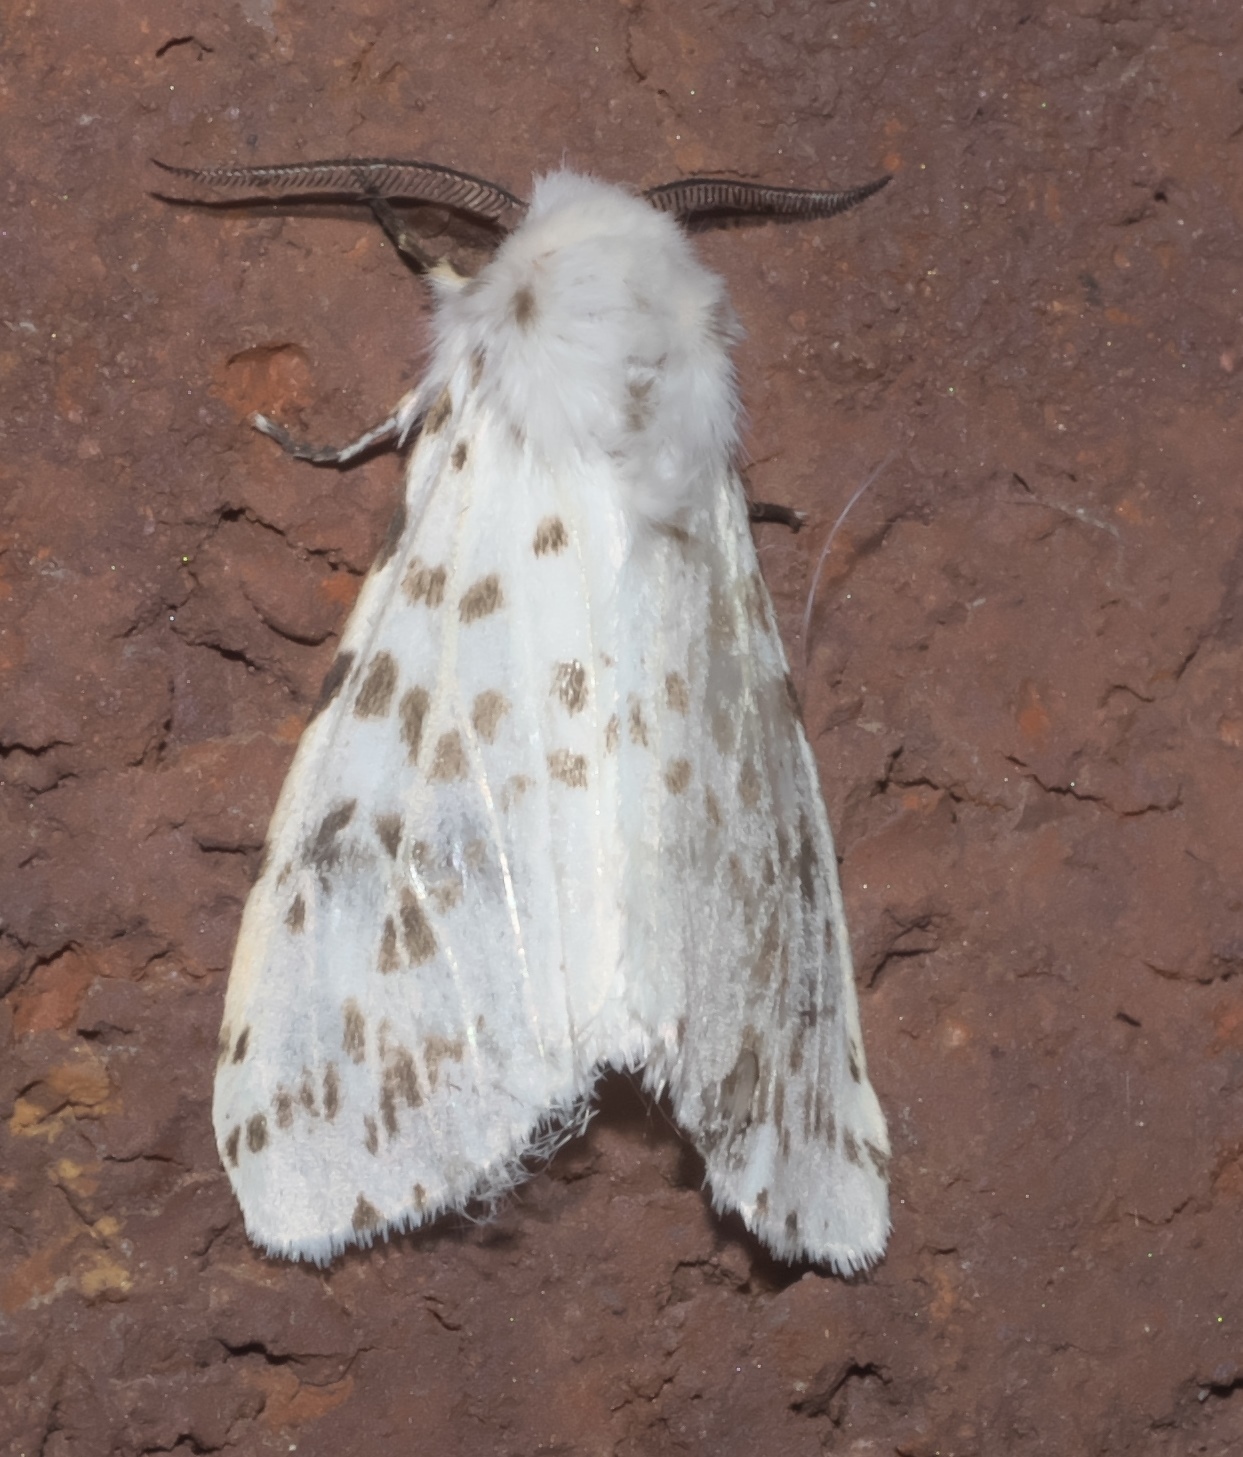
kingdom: Animalia
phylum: Arthropoda
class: Insecta
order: Lepidoptera
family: Erebidae
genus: Hyphantria
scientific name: Hyphantria cunea
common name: American white moth
